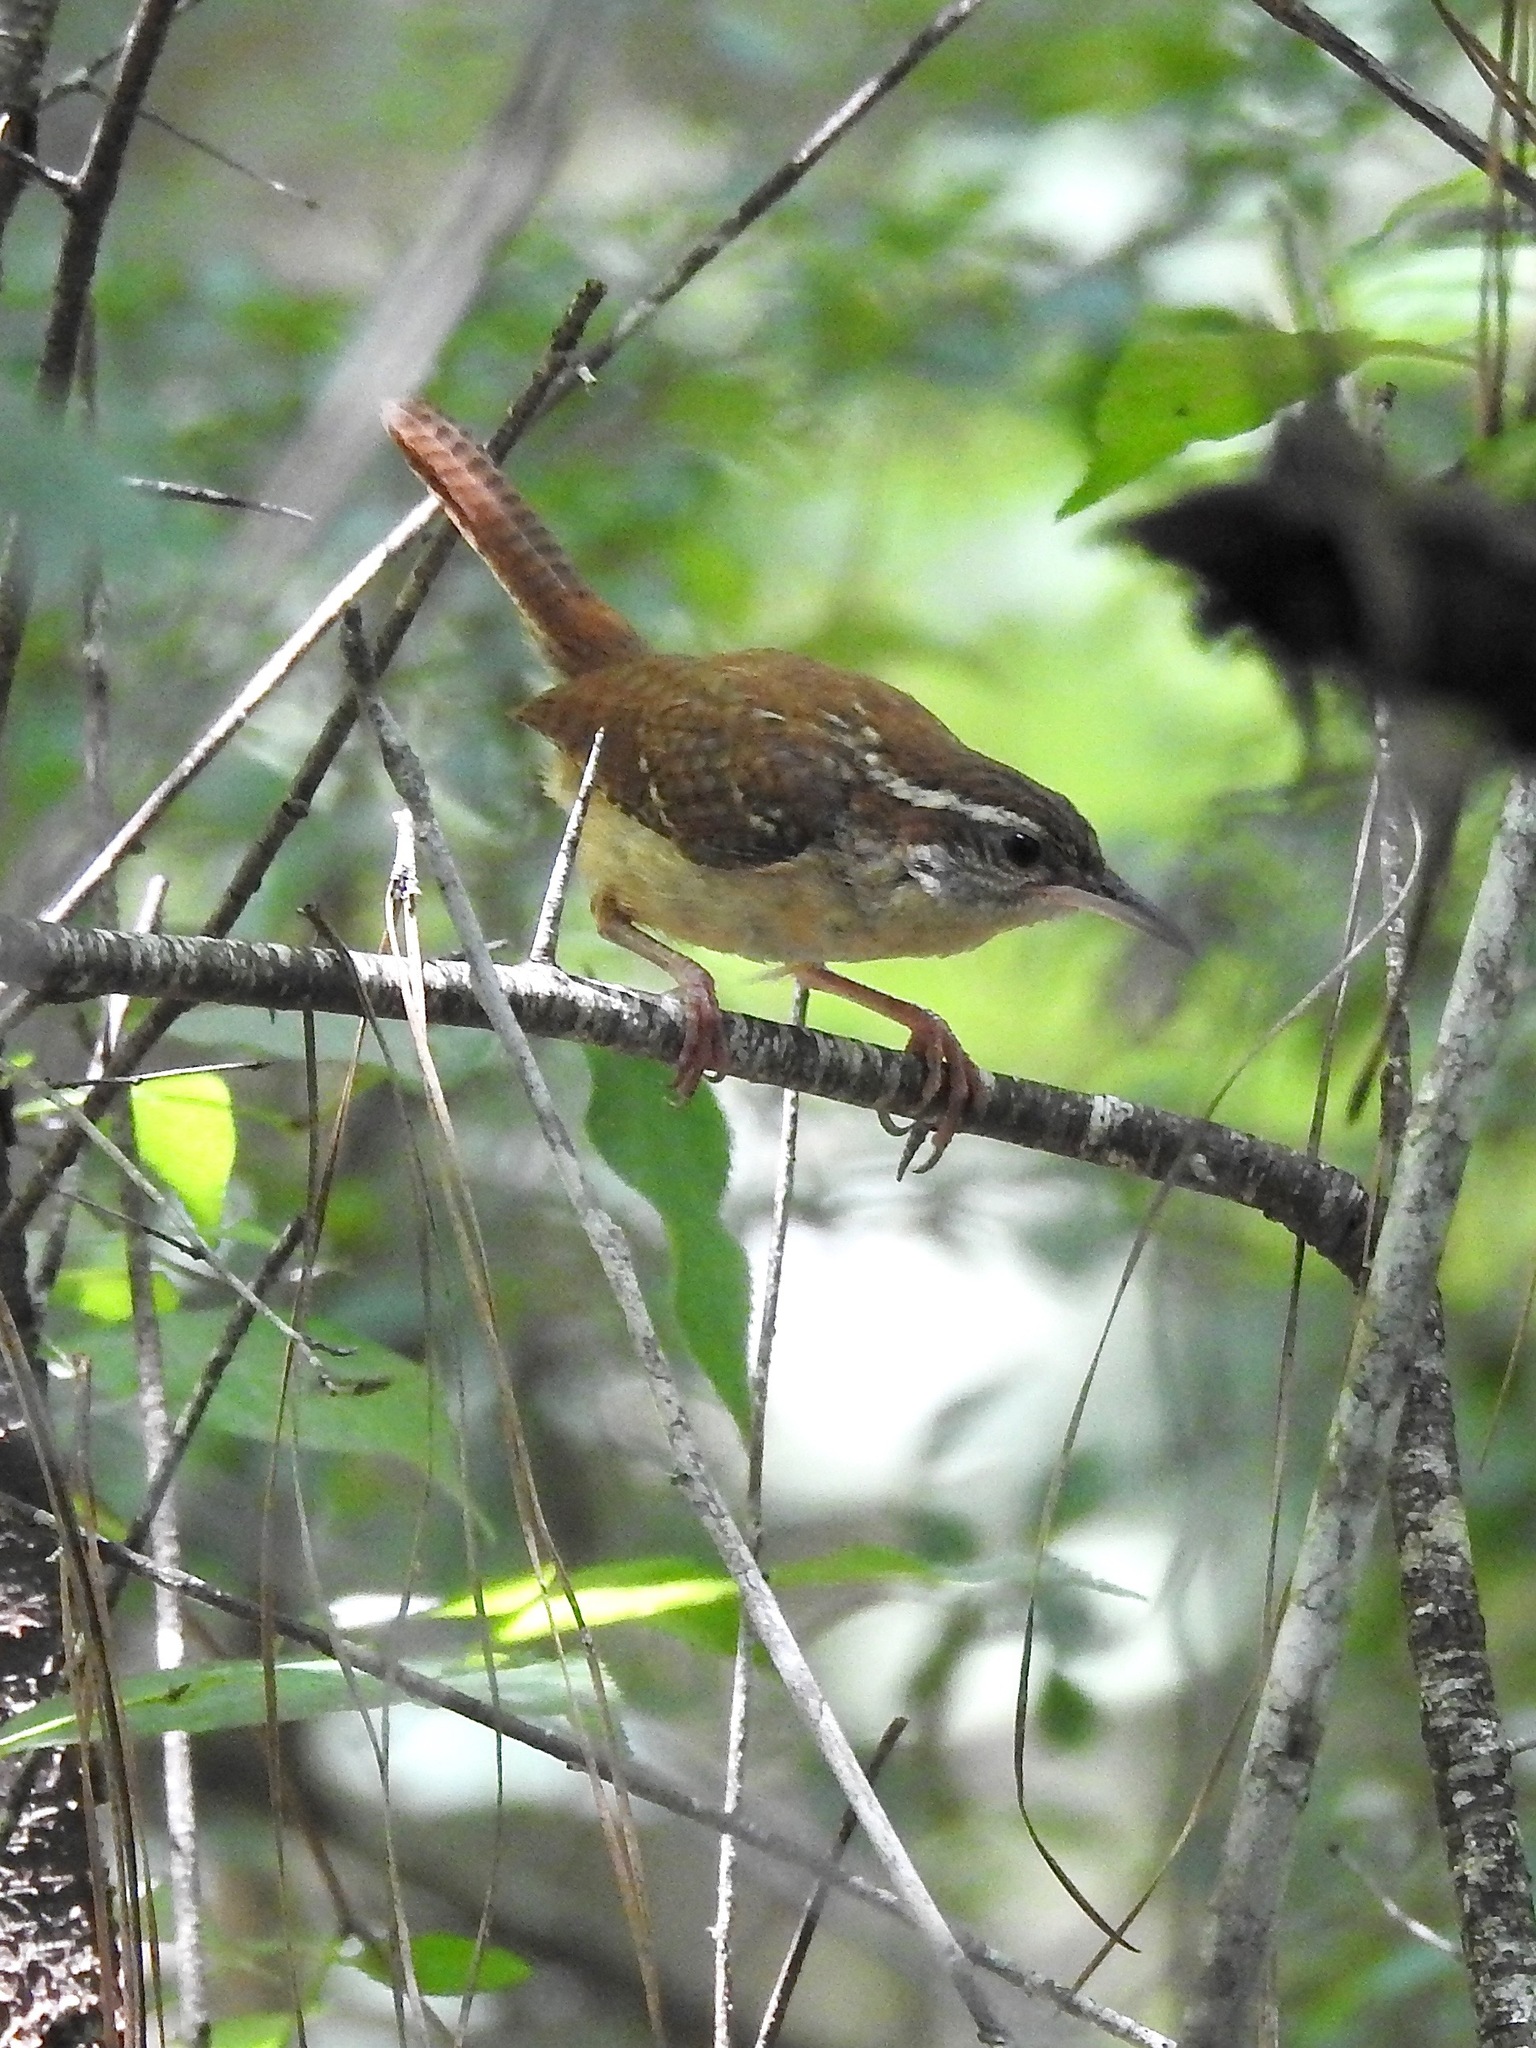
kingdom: Animalia
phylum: Chordata
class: Aves
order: Passeriformes
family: Troglodytidae
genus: Thryothorus
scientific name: Thryothorus ludovicianus
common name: Carolina wren
